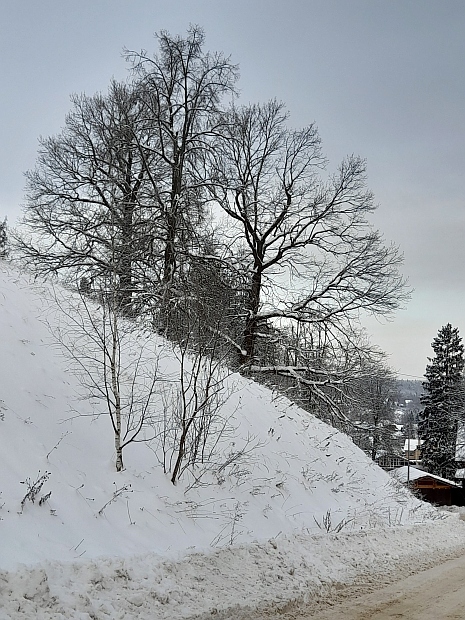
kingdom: Plantae
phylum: Tracheophyta
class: Magnoliopsida
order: Fagales
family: Fagaceae
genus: Quercus
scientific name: Quercus robur
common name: Pedunculate oak
